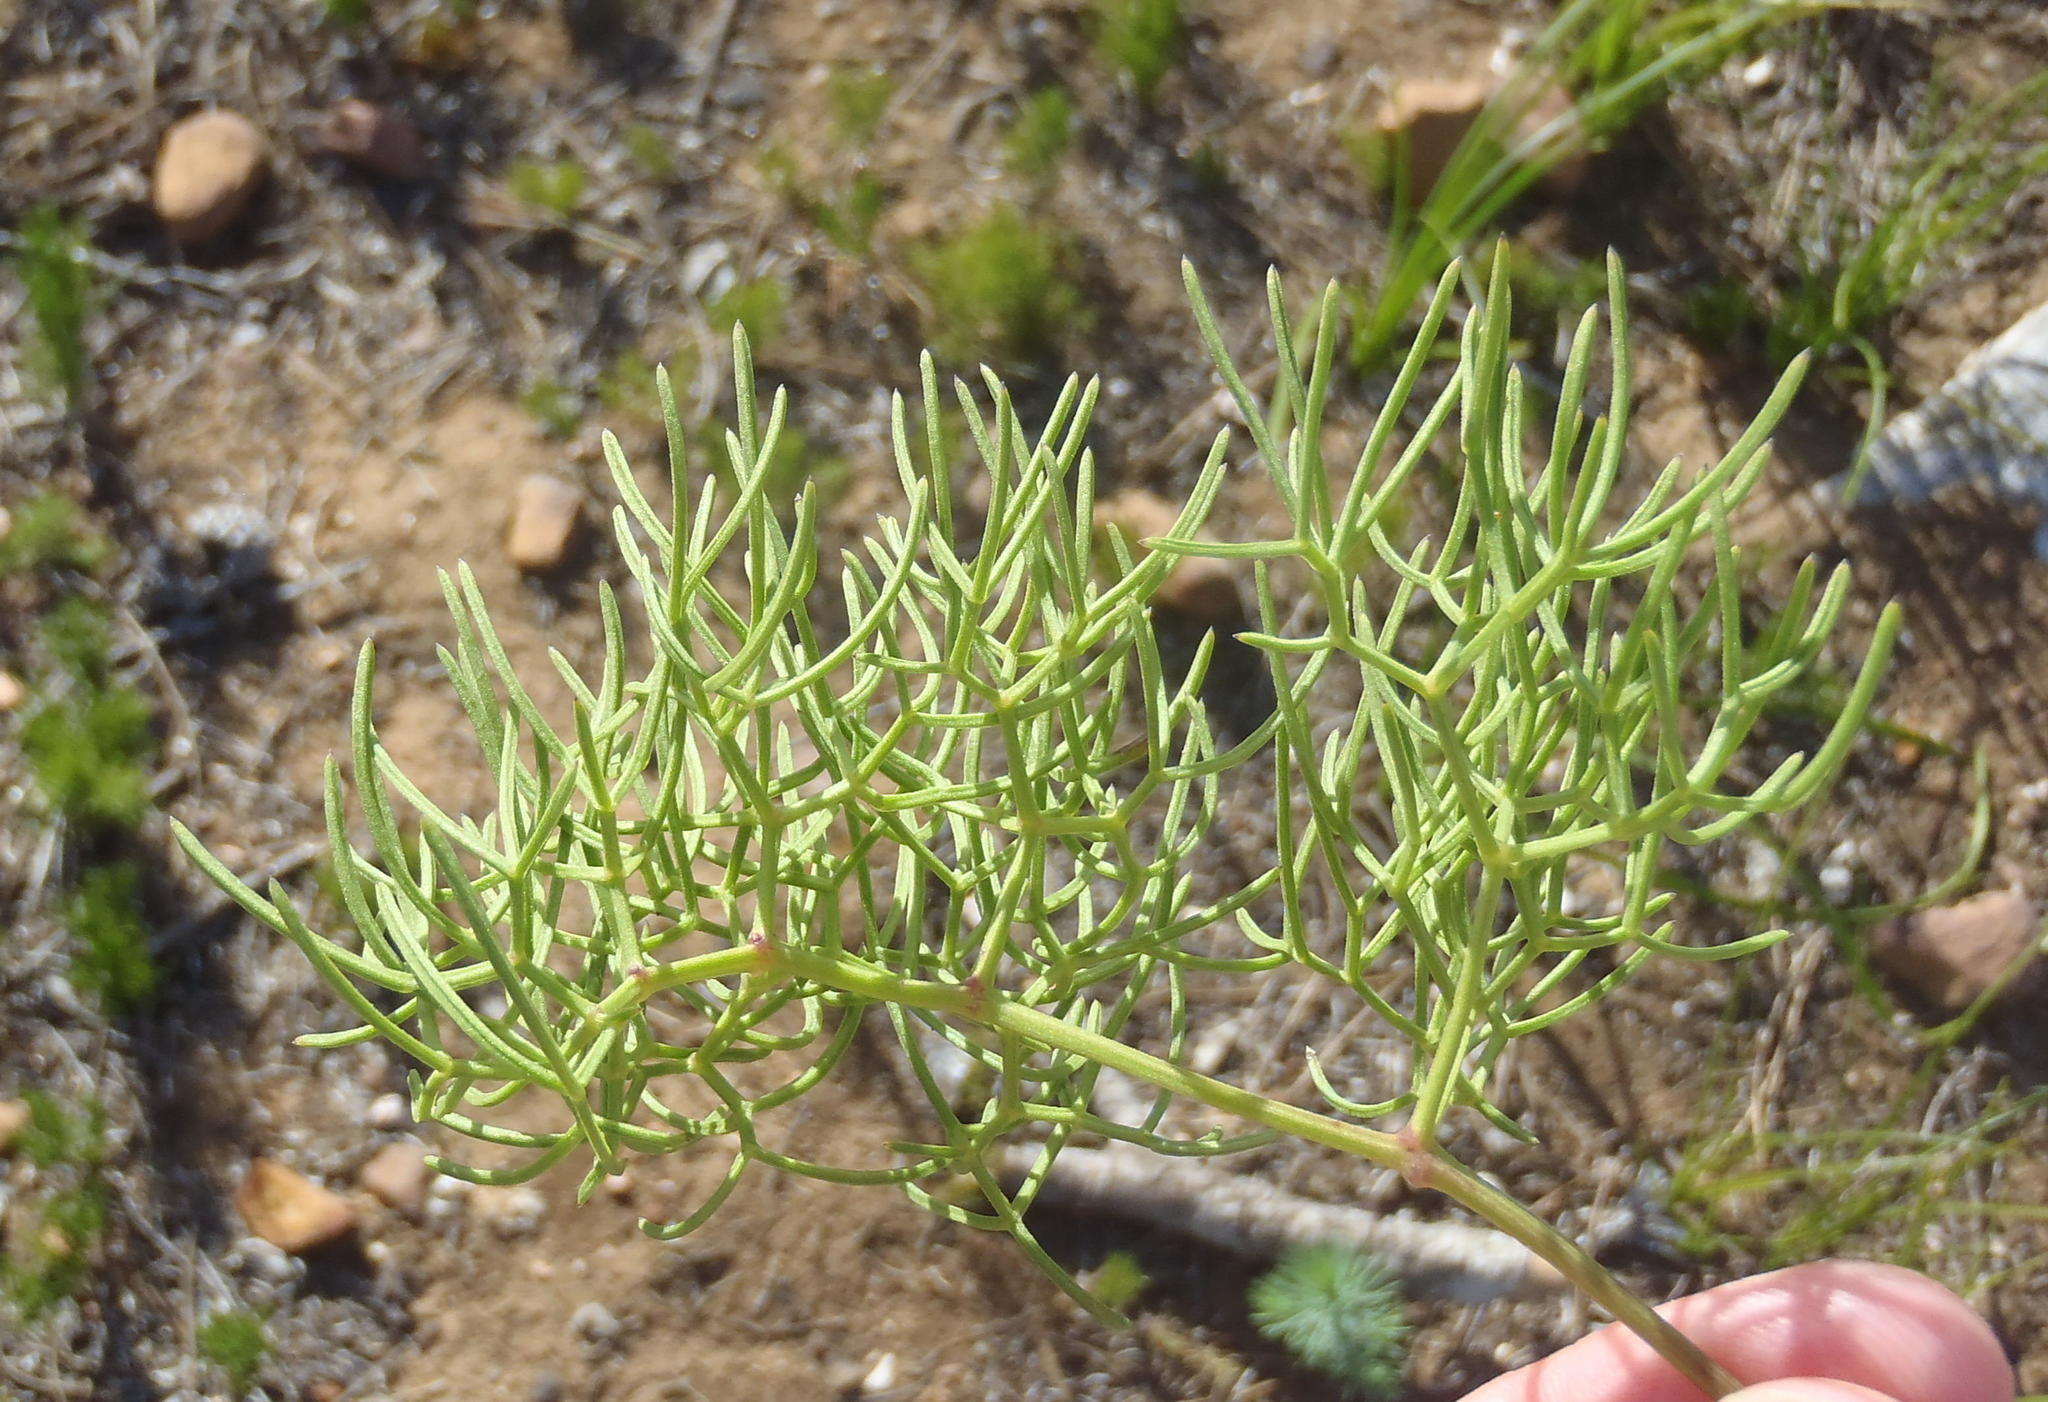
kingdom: Plantae
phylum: Tracheophyta
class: Magnoliopsida
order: Apiales
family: Apiaceae
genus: Nanobubon
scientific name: Nanobubon capillaceum
